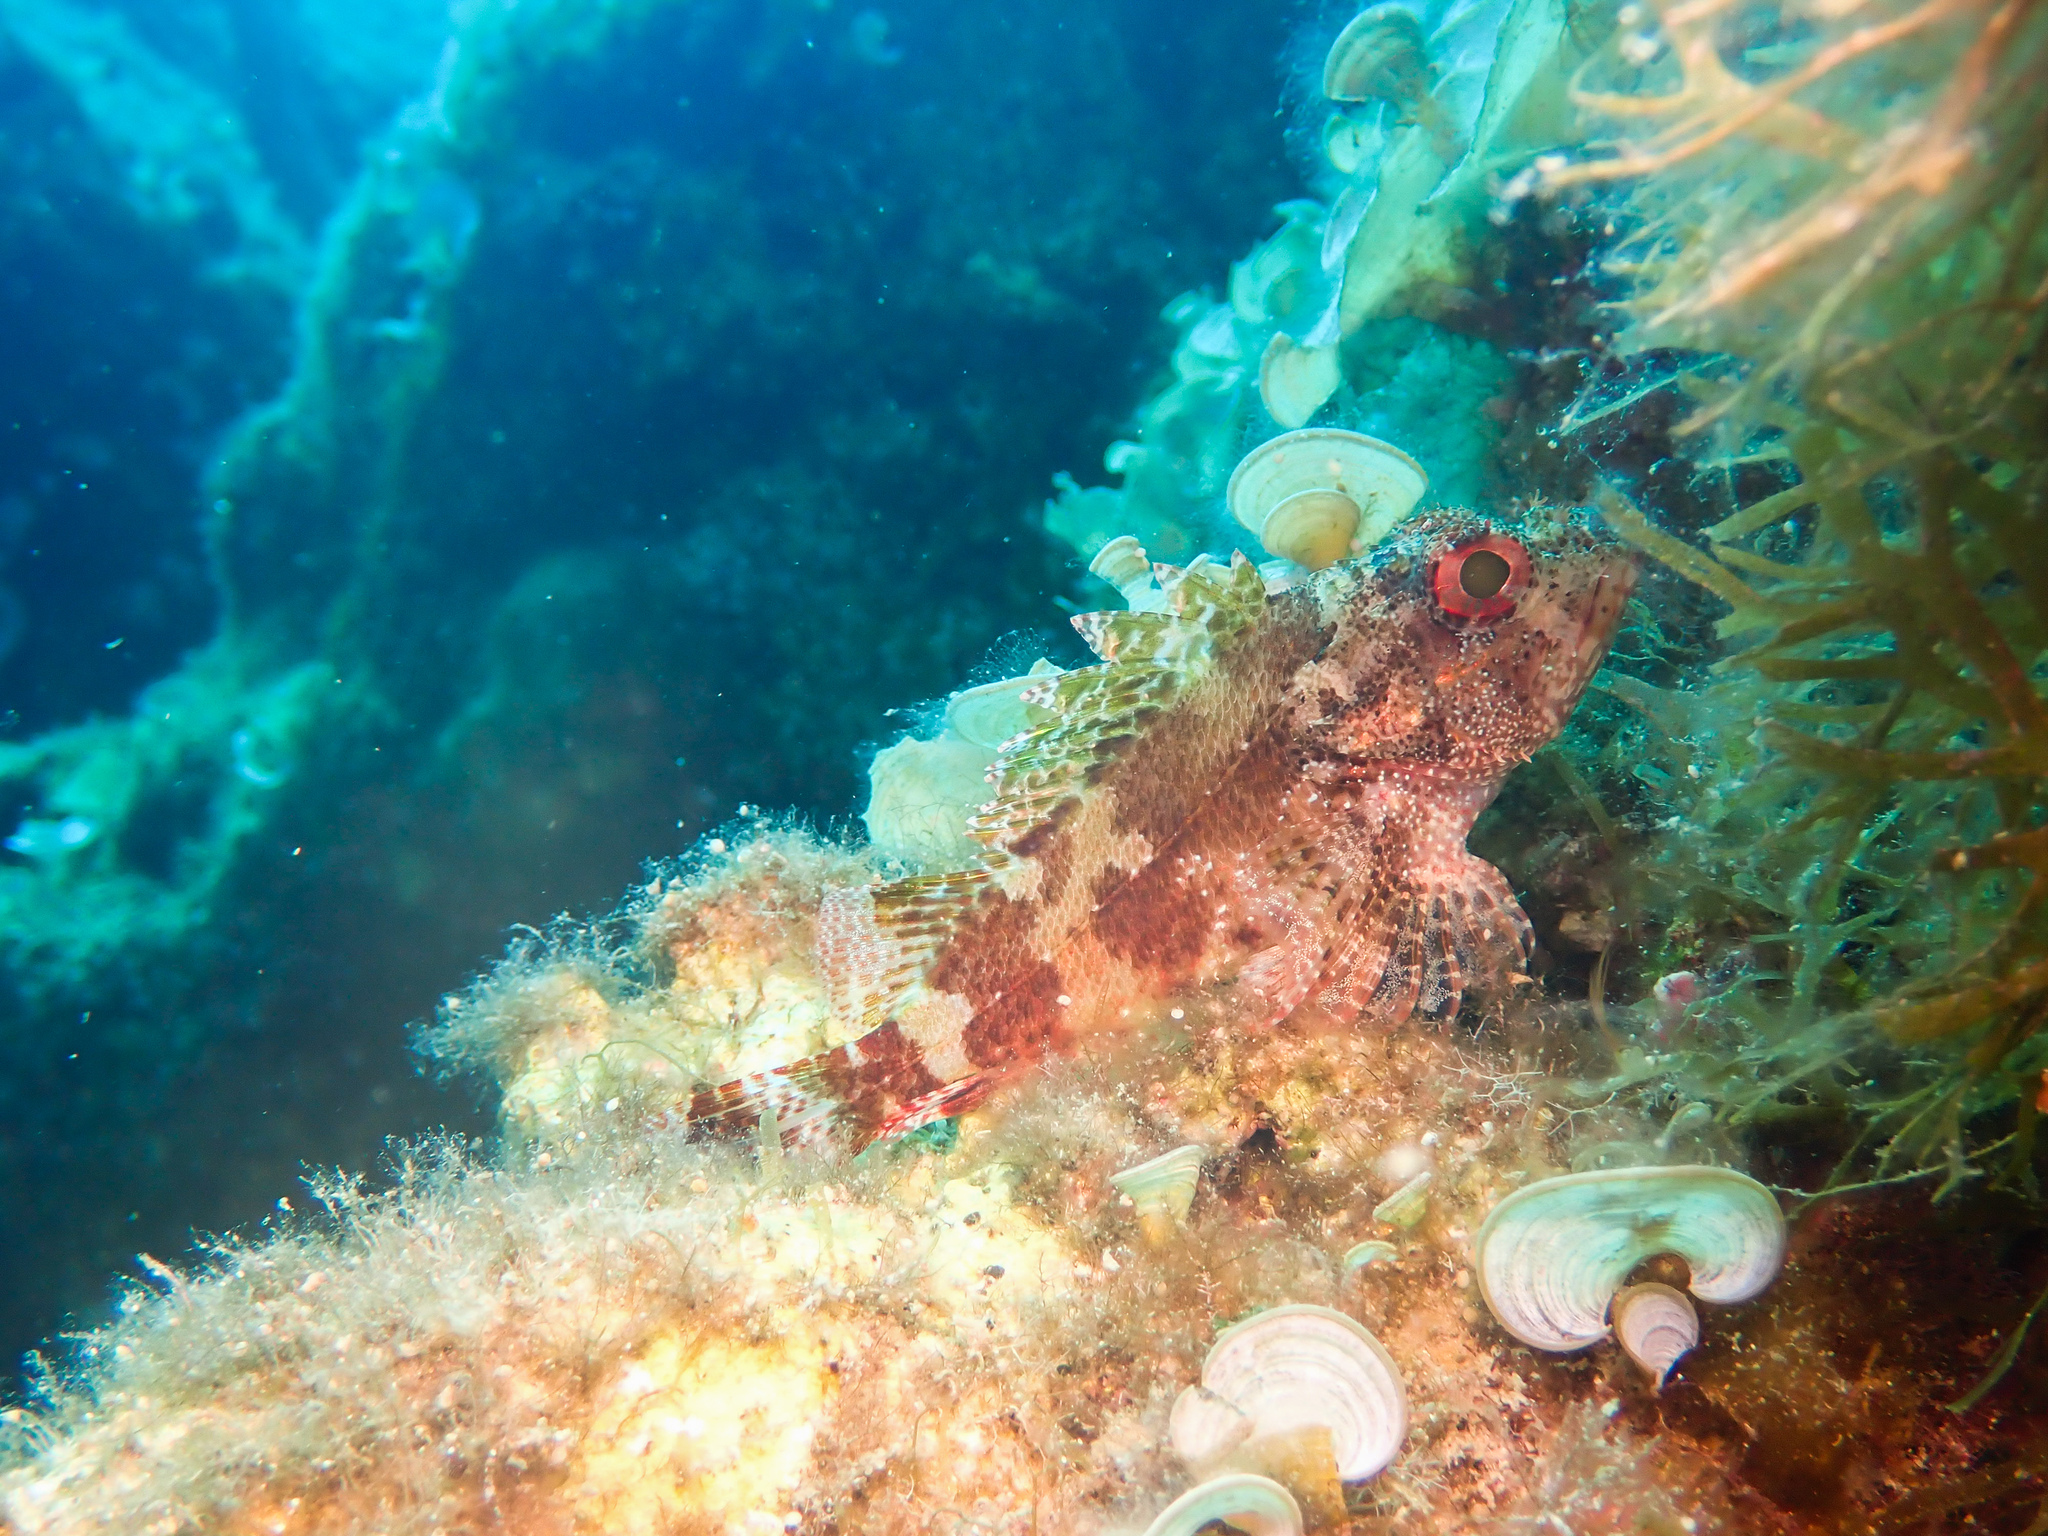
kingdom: Animalia
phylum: Chordata
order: Scorpaeniformes
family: Scorpaenidae
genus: Scorpaena
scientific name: Scorpaena maderensis
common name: Madeira rockfish
